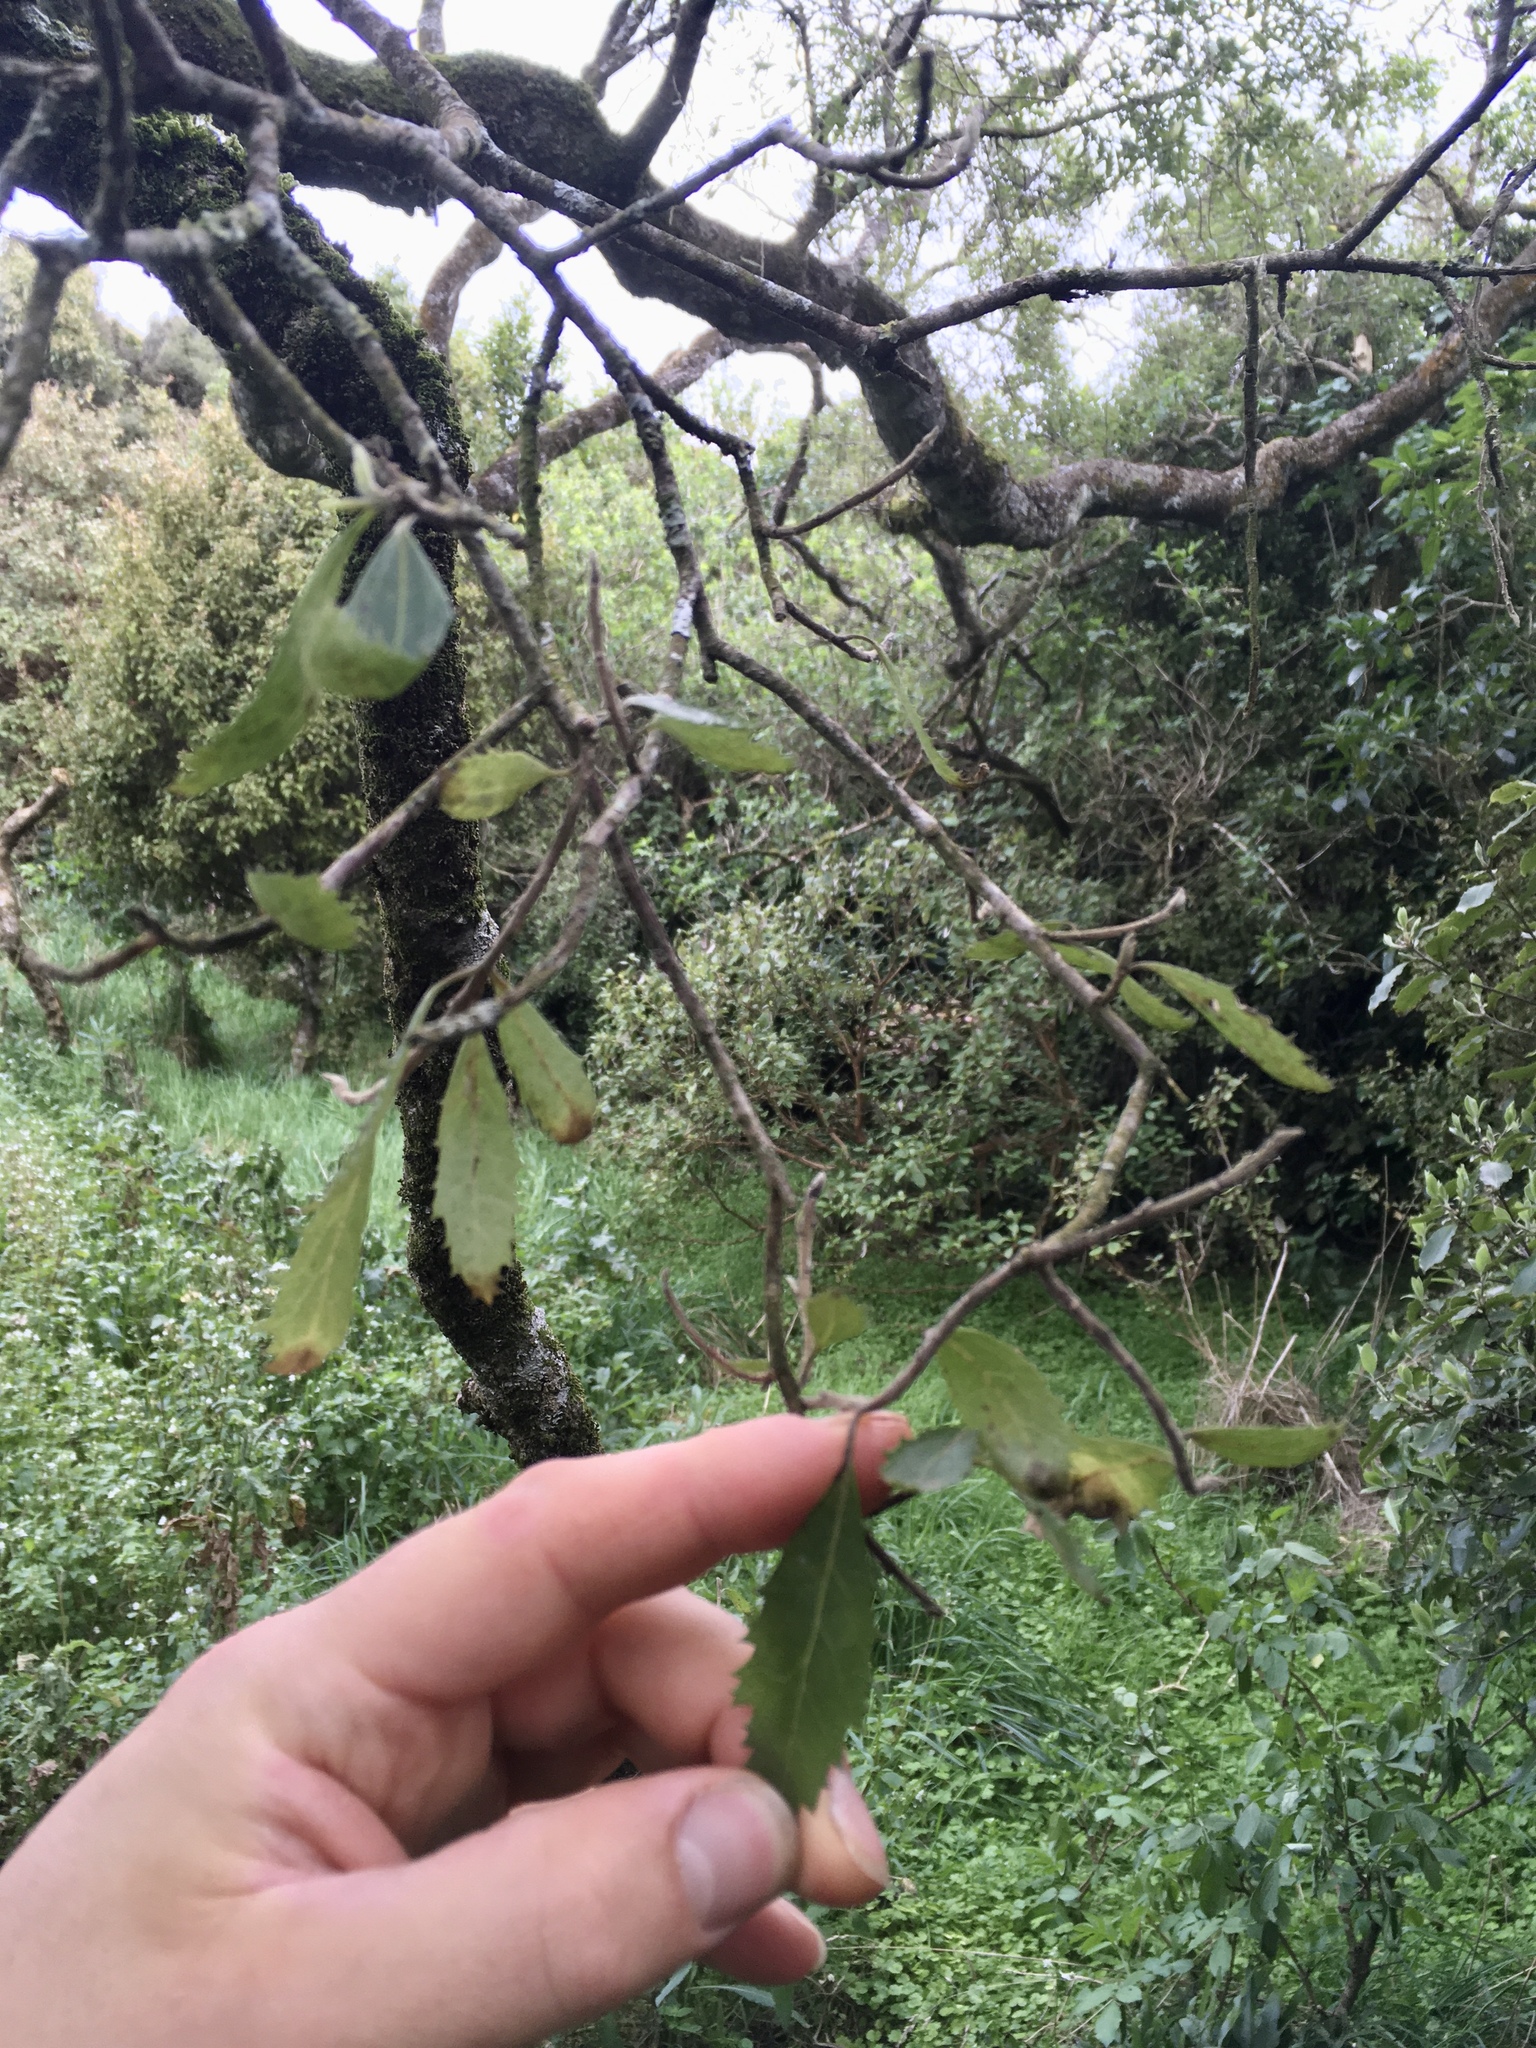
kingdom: Plantae
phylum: Tracheophyta
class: Magnoliopsida
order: Malvales
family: Malvaceae
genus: Hoheria
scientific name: Hoheria angustifolia
